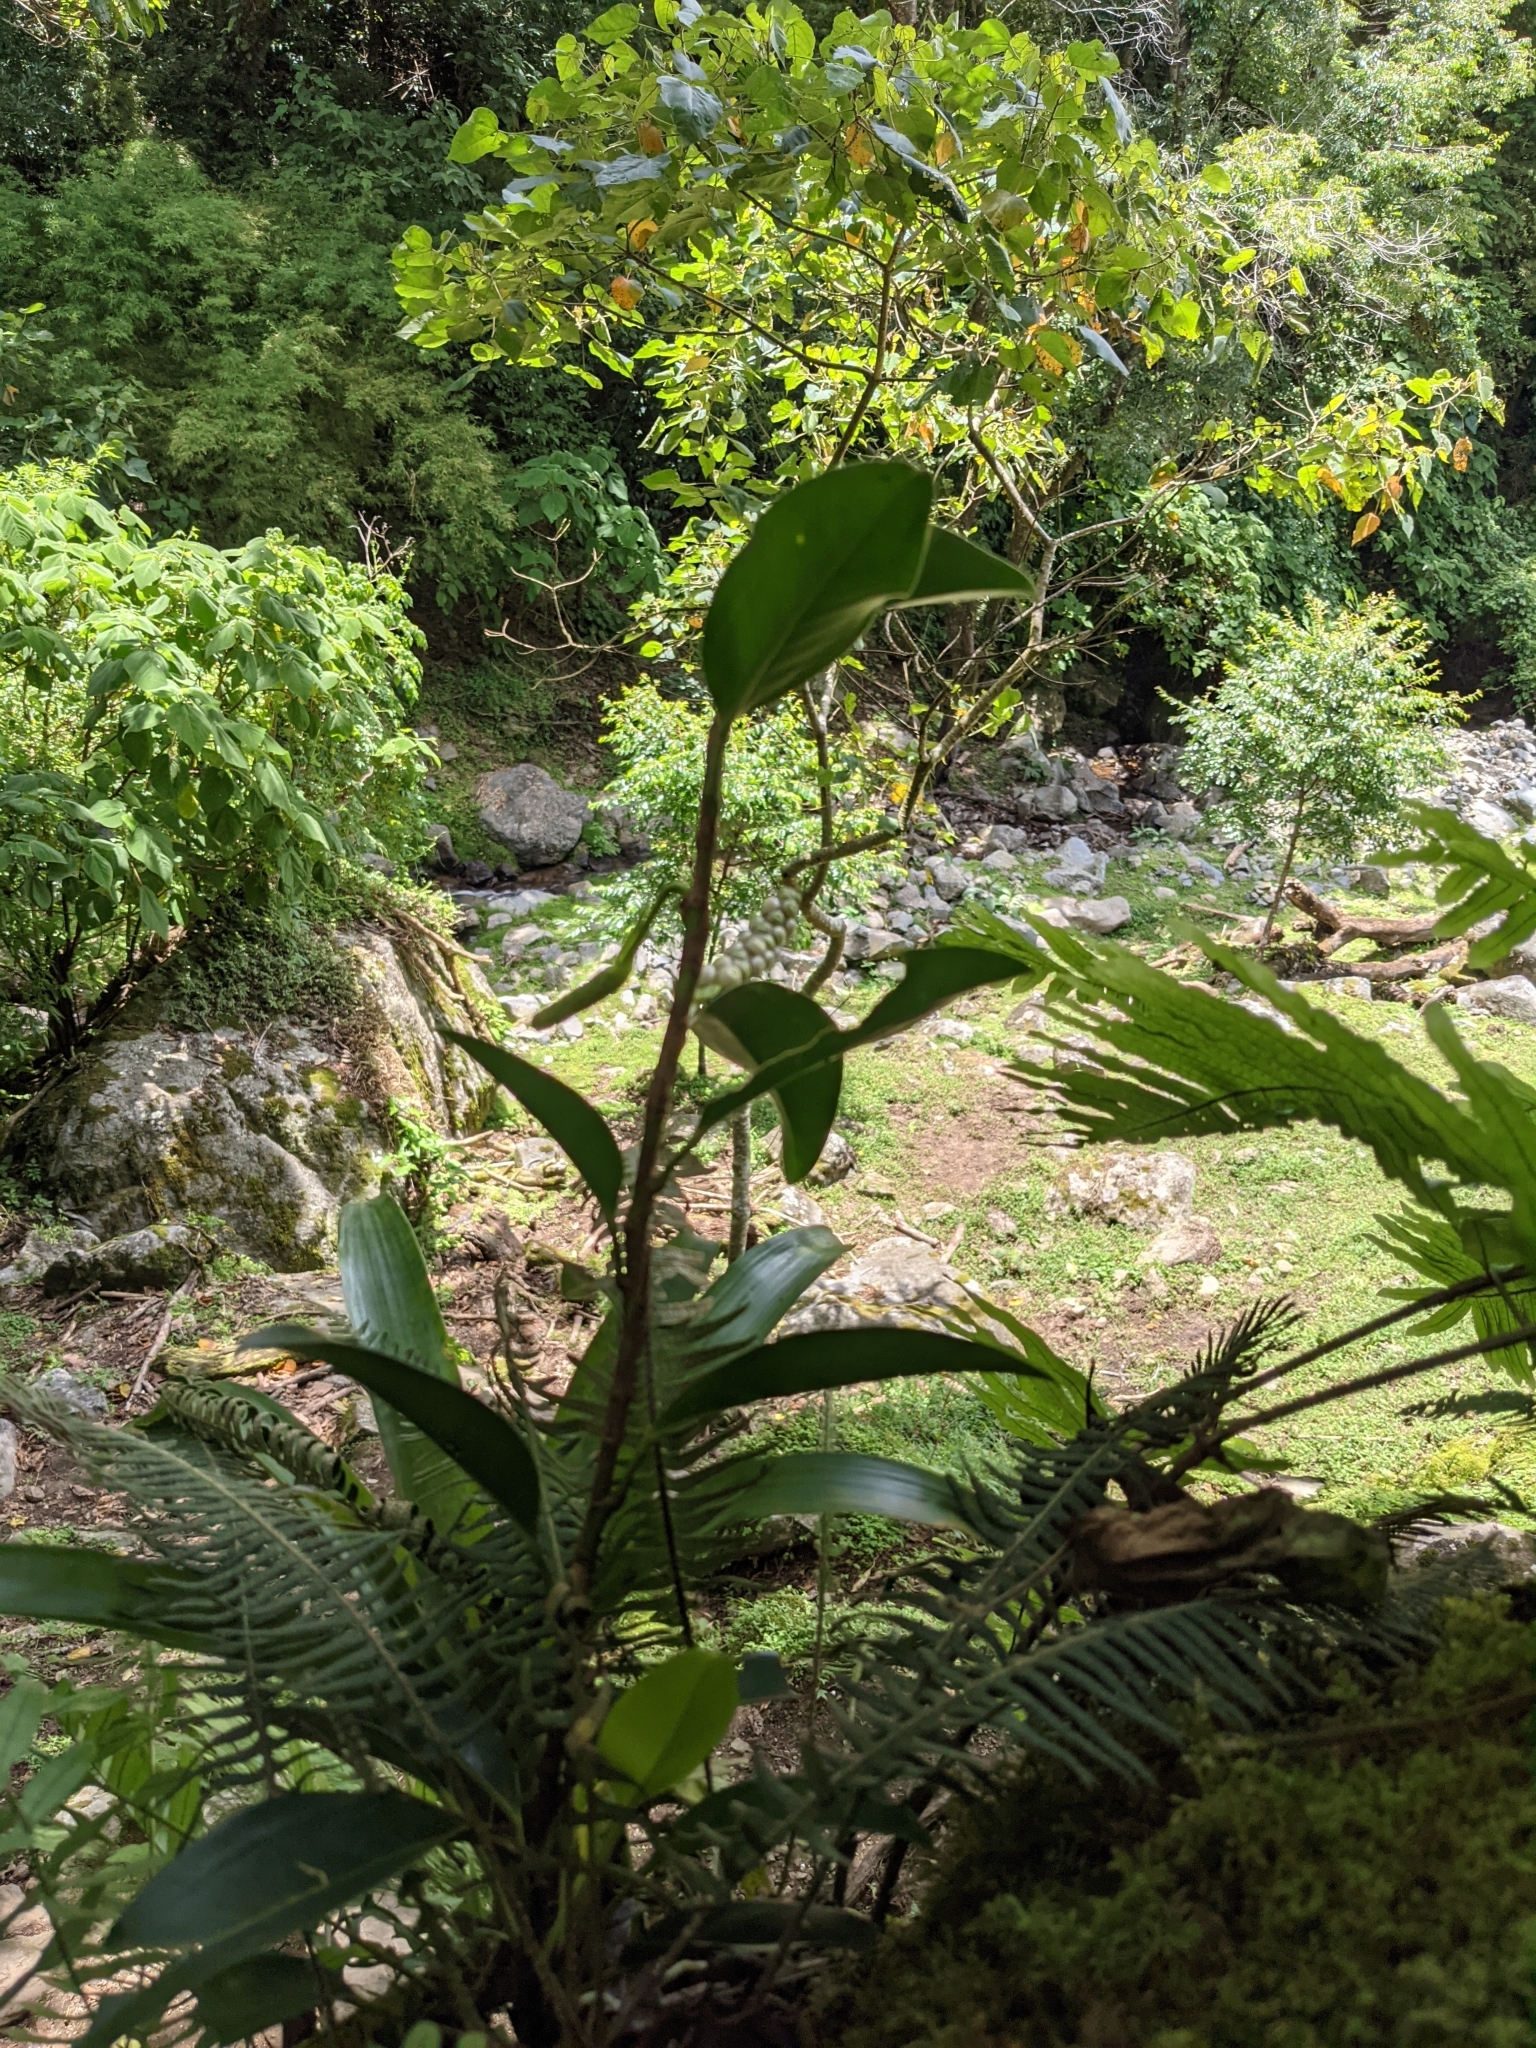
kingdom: Plantae
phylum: Tracheophyta
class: Liliopsida
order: Alismatales
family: Araceae
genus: Anthurium
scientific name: Anthurium scandens
